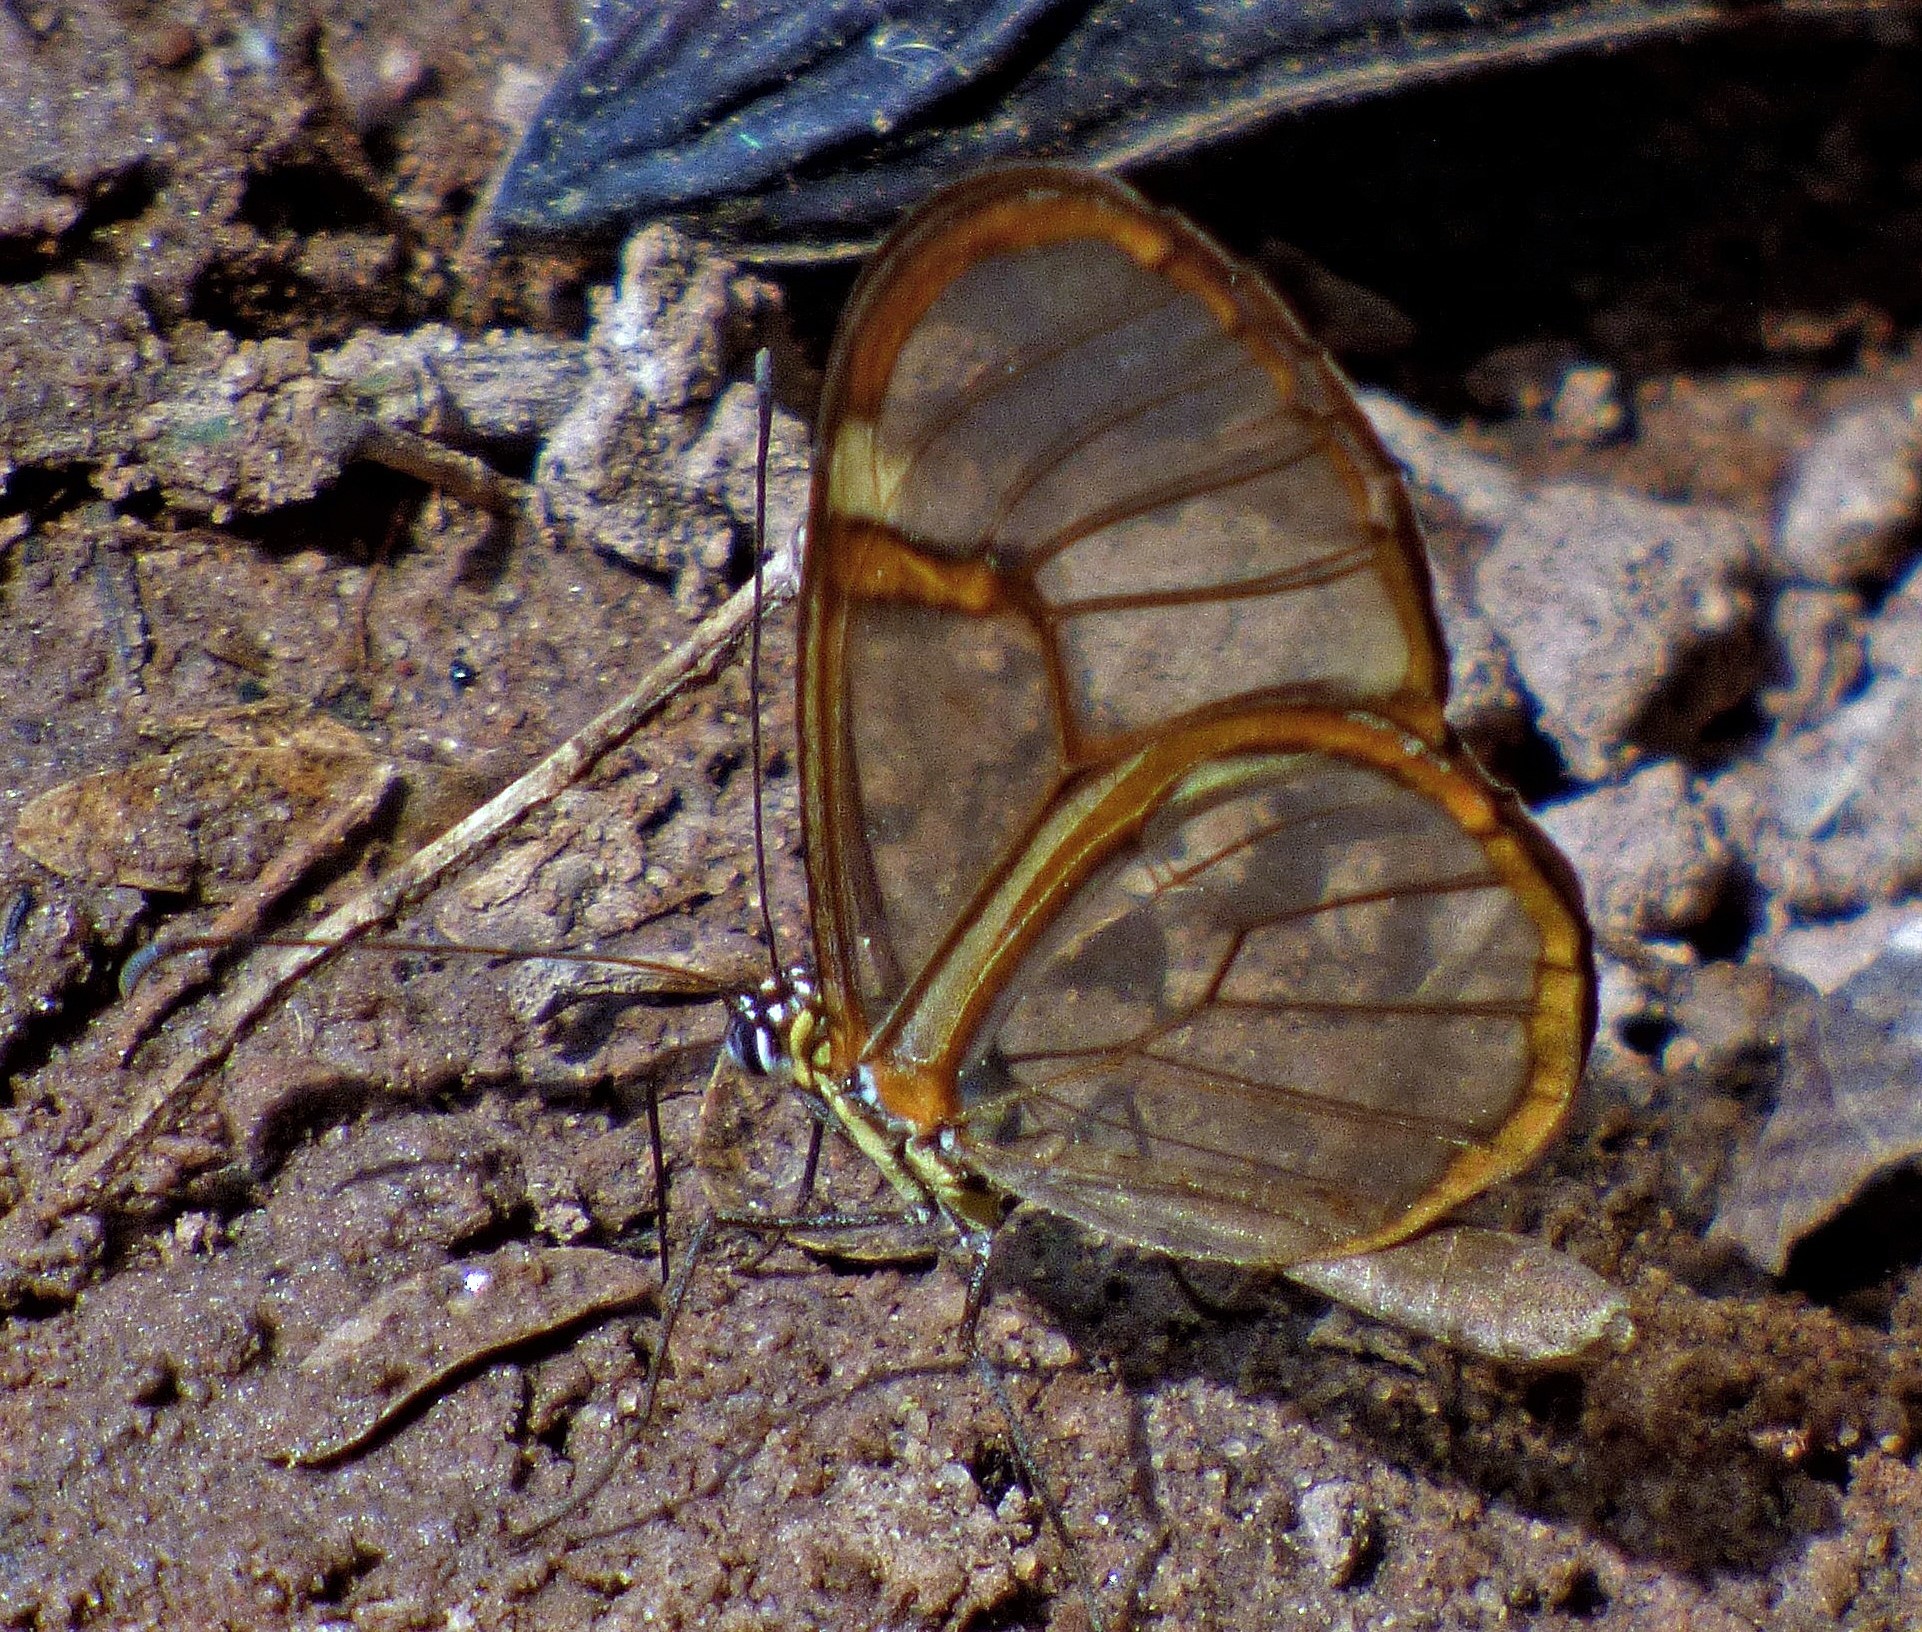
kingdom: Animalia
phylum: Arthropoda
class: Insecta
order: Lepidoptera
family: Nymphalidae
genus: Episcada
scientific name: Episcada hymenaea
